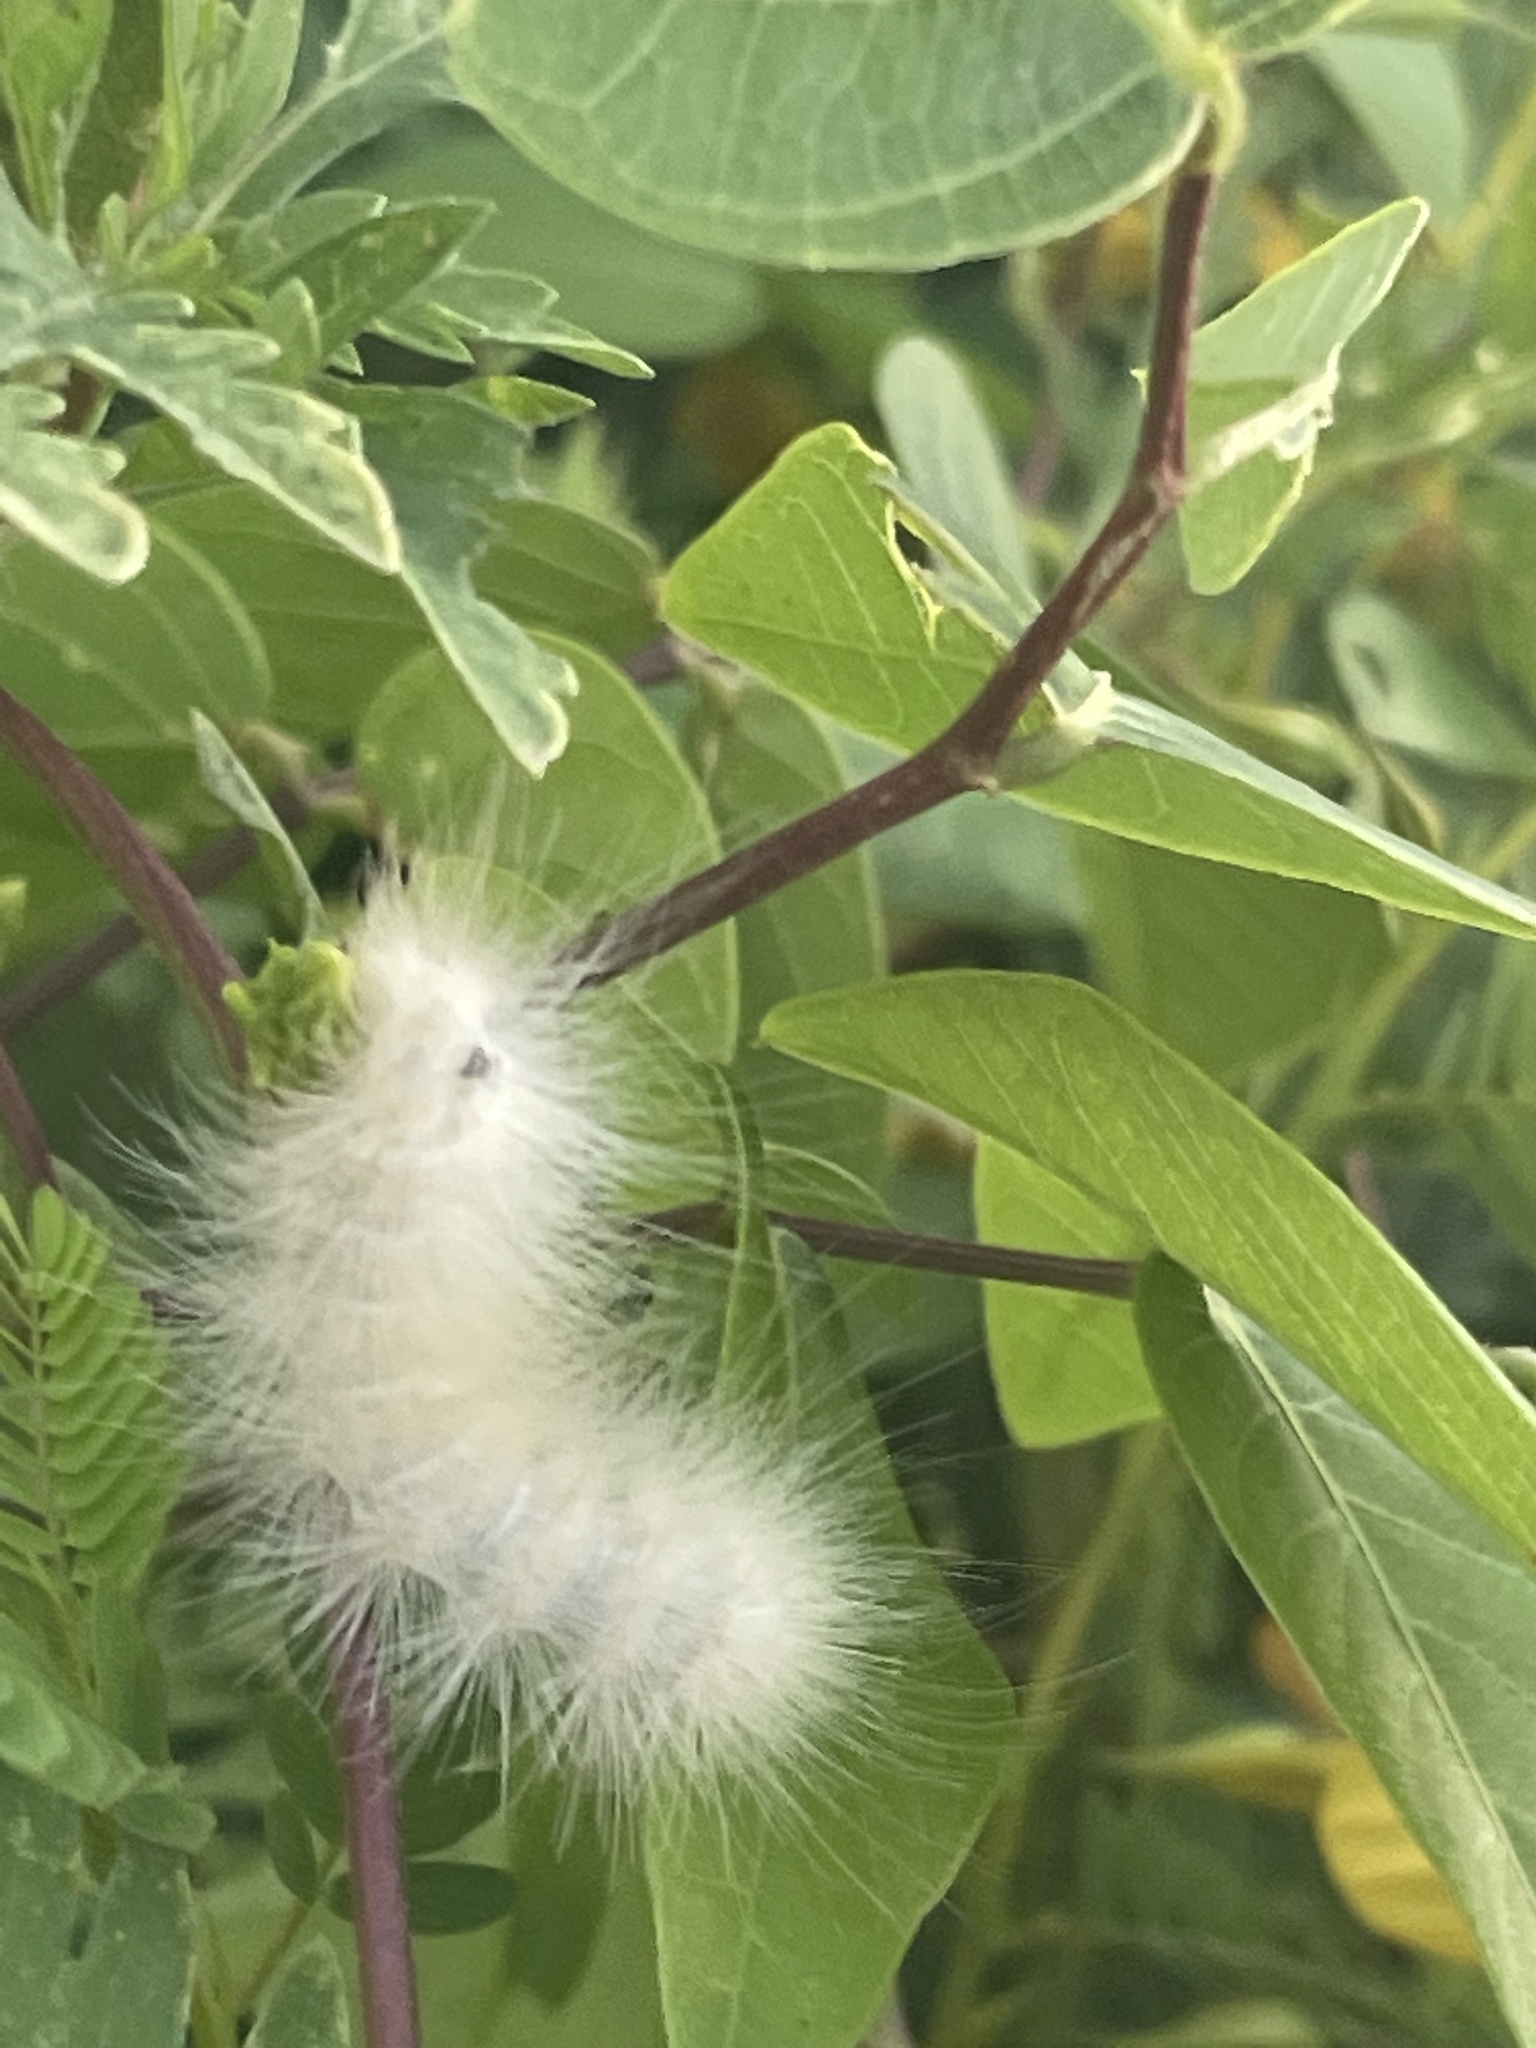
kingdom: Animalia
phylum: Arthropoda
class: Insecta
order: Lepidoptera
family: Erebidae
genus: Spilosoma
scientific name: Spilosoma virginica
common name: Virginia tiger moth
